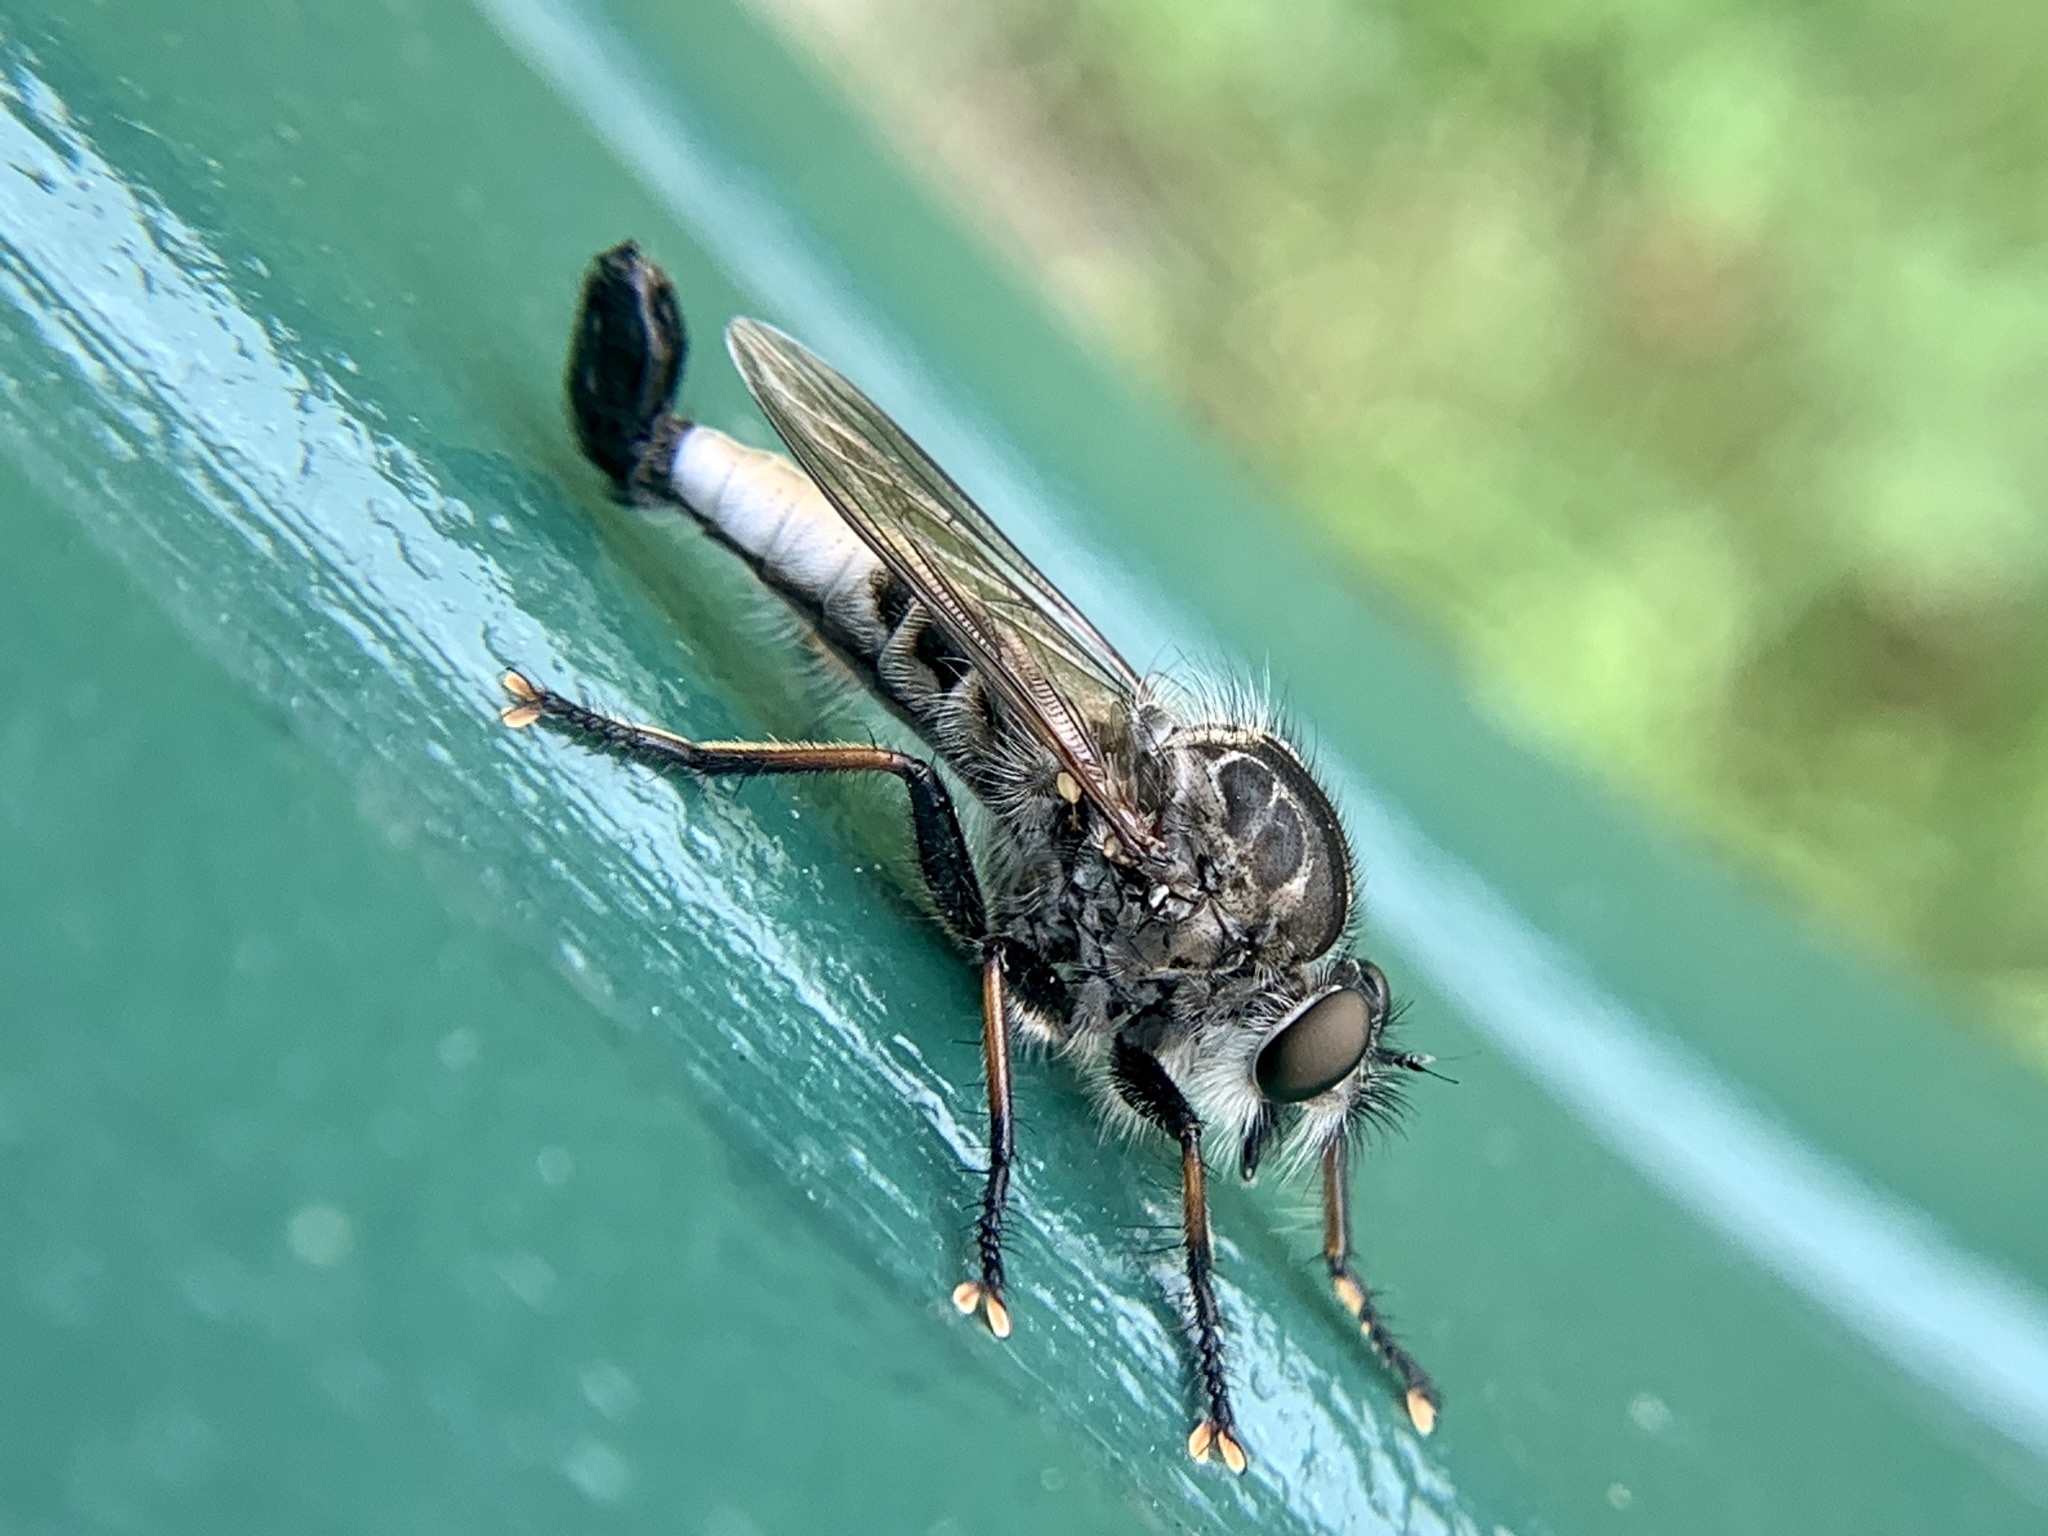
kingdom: Animalia
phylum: Arthropoda
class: Insecta
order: Diptera
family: Asilidae
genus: Efferia
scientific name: Efferia aestuans
